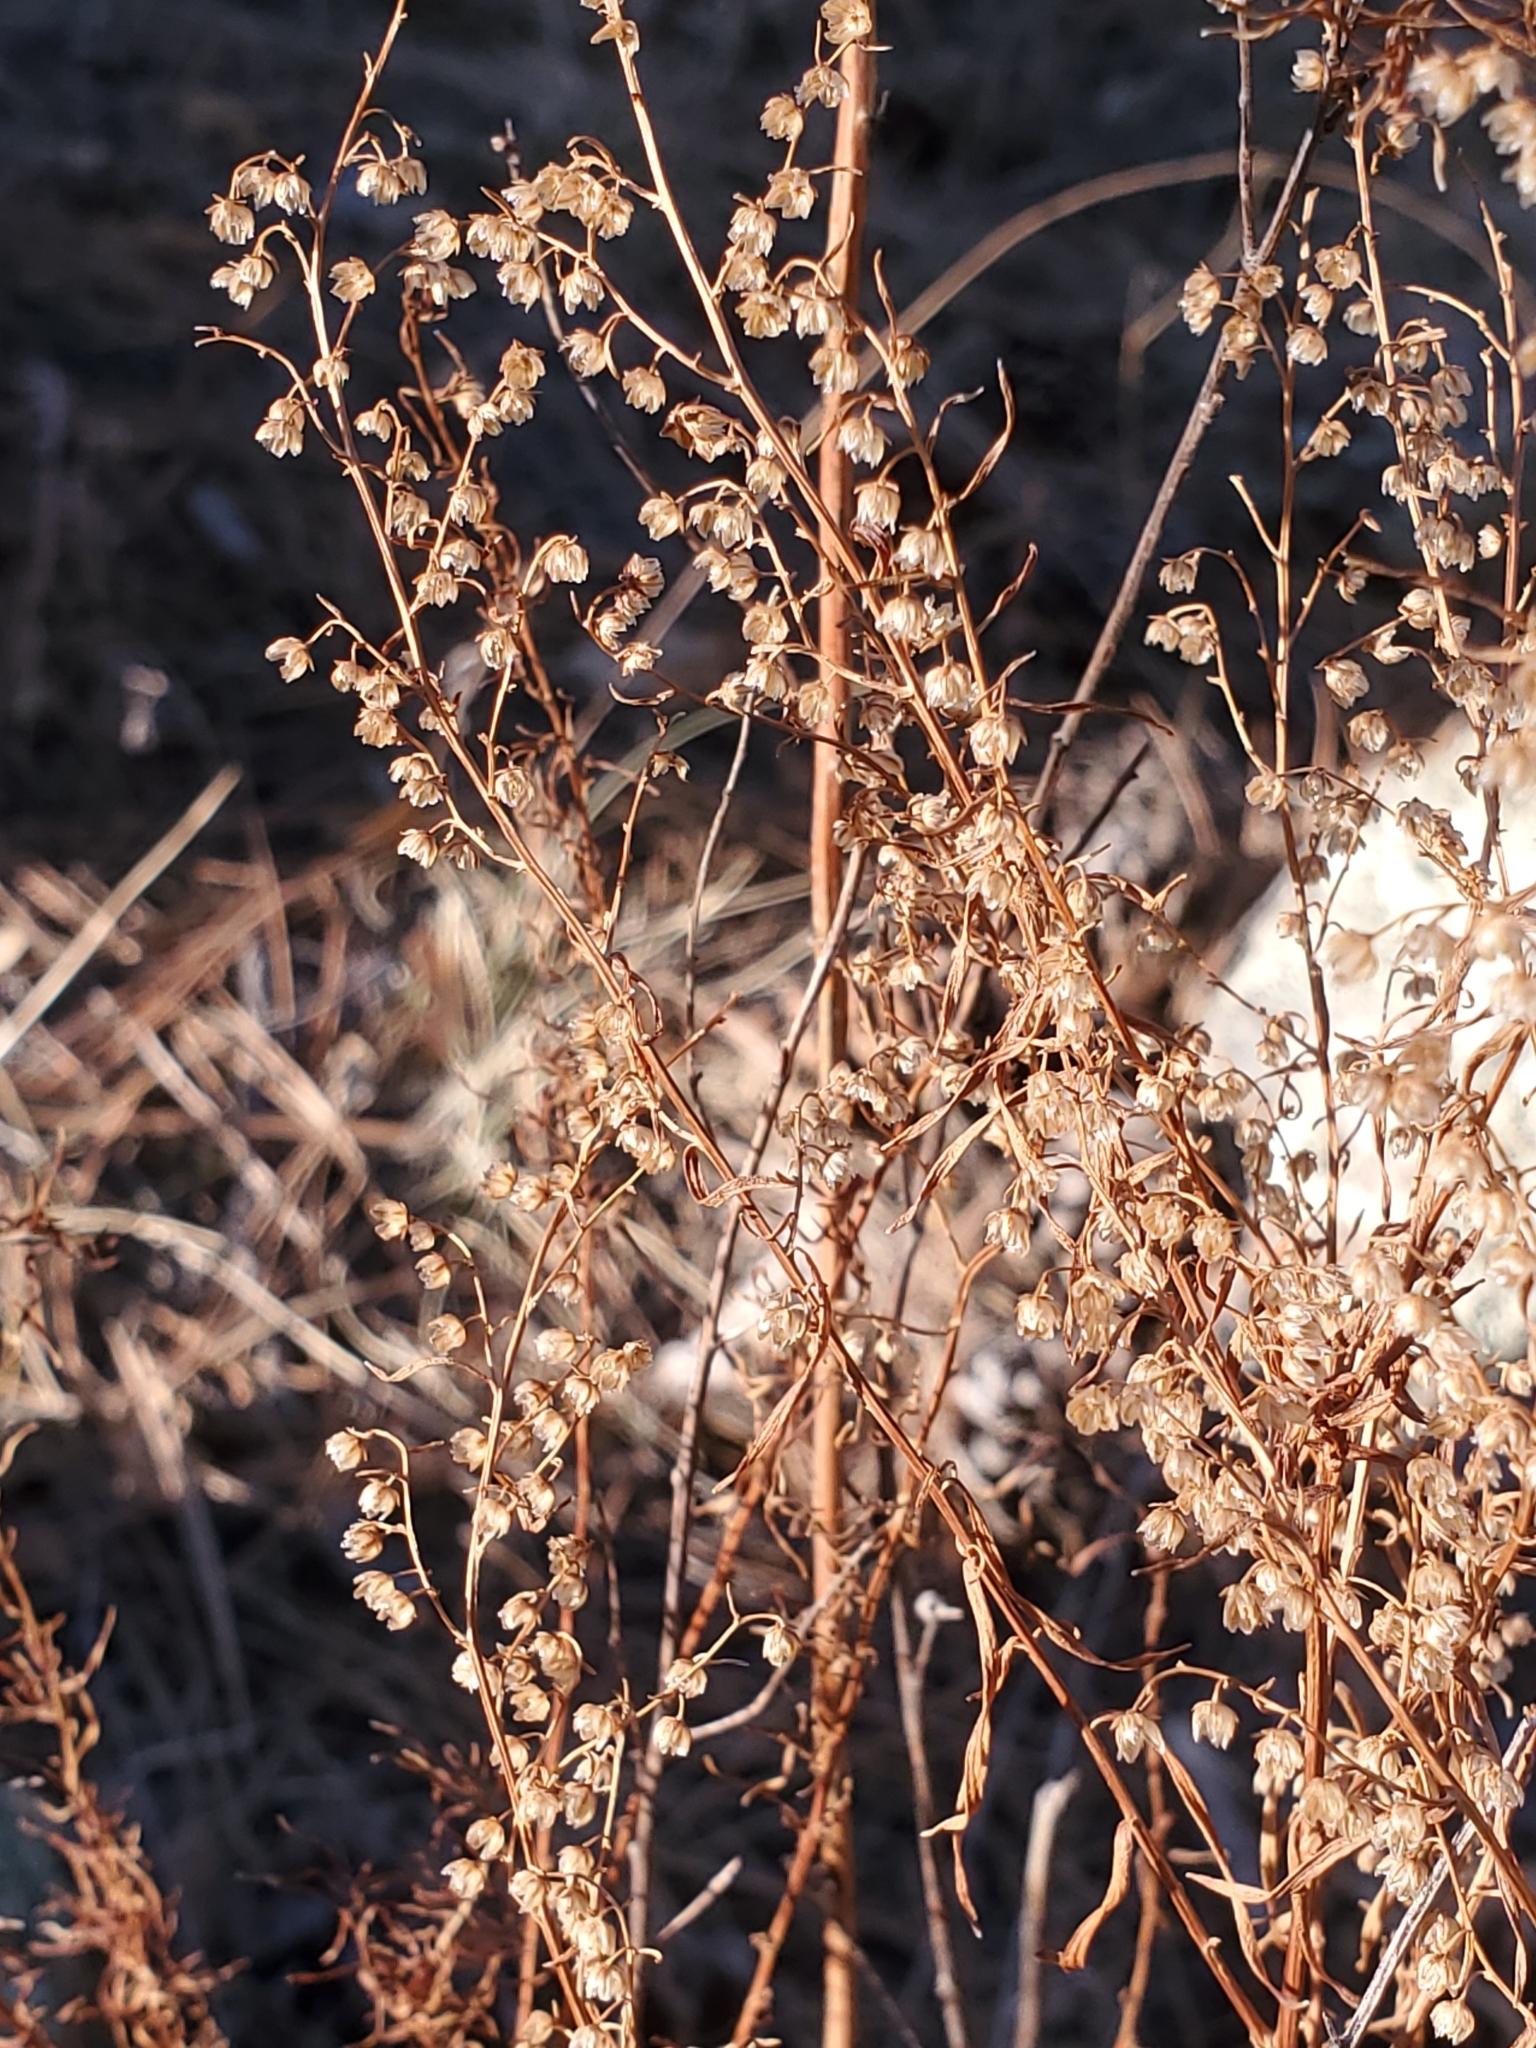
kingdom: Plantae
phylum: Tracheophyta
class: Magnoliopsida
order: Asterales
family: Asteraceae
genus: Artemisia
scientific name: Artemisia dracunculus
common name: Tarragon
